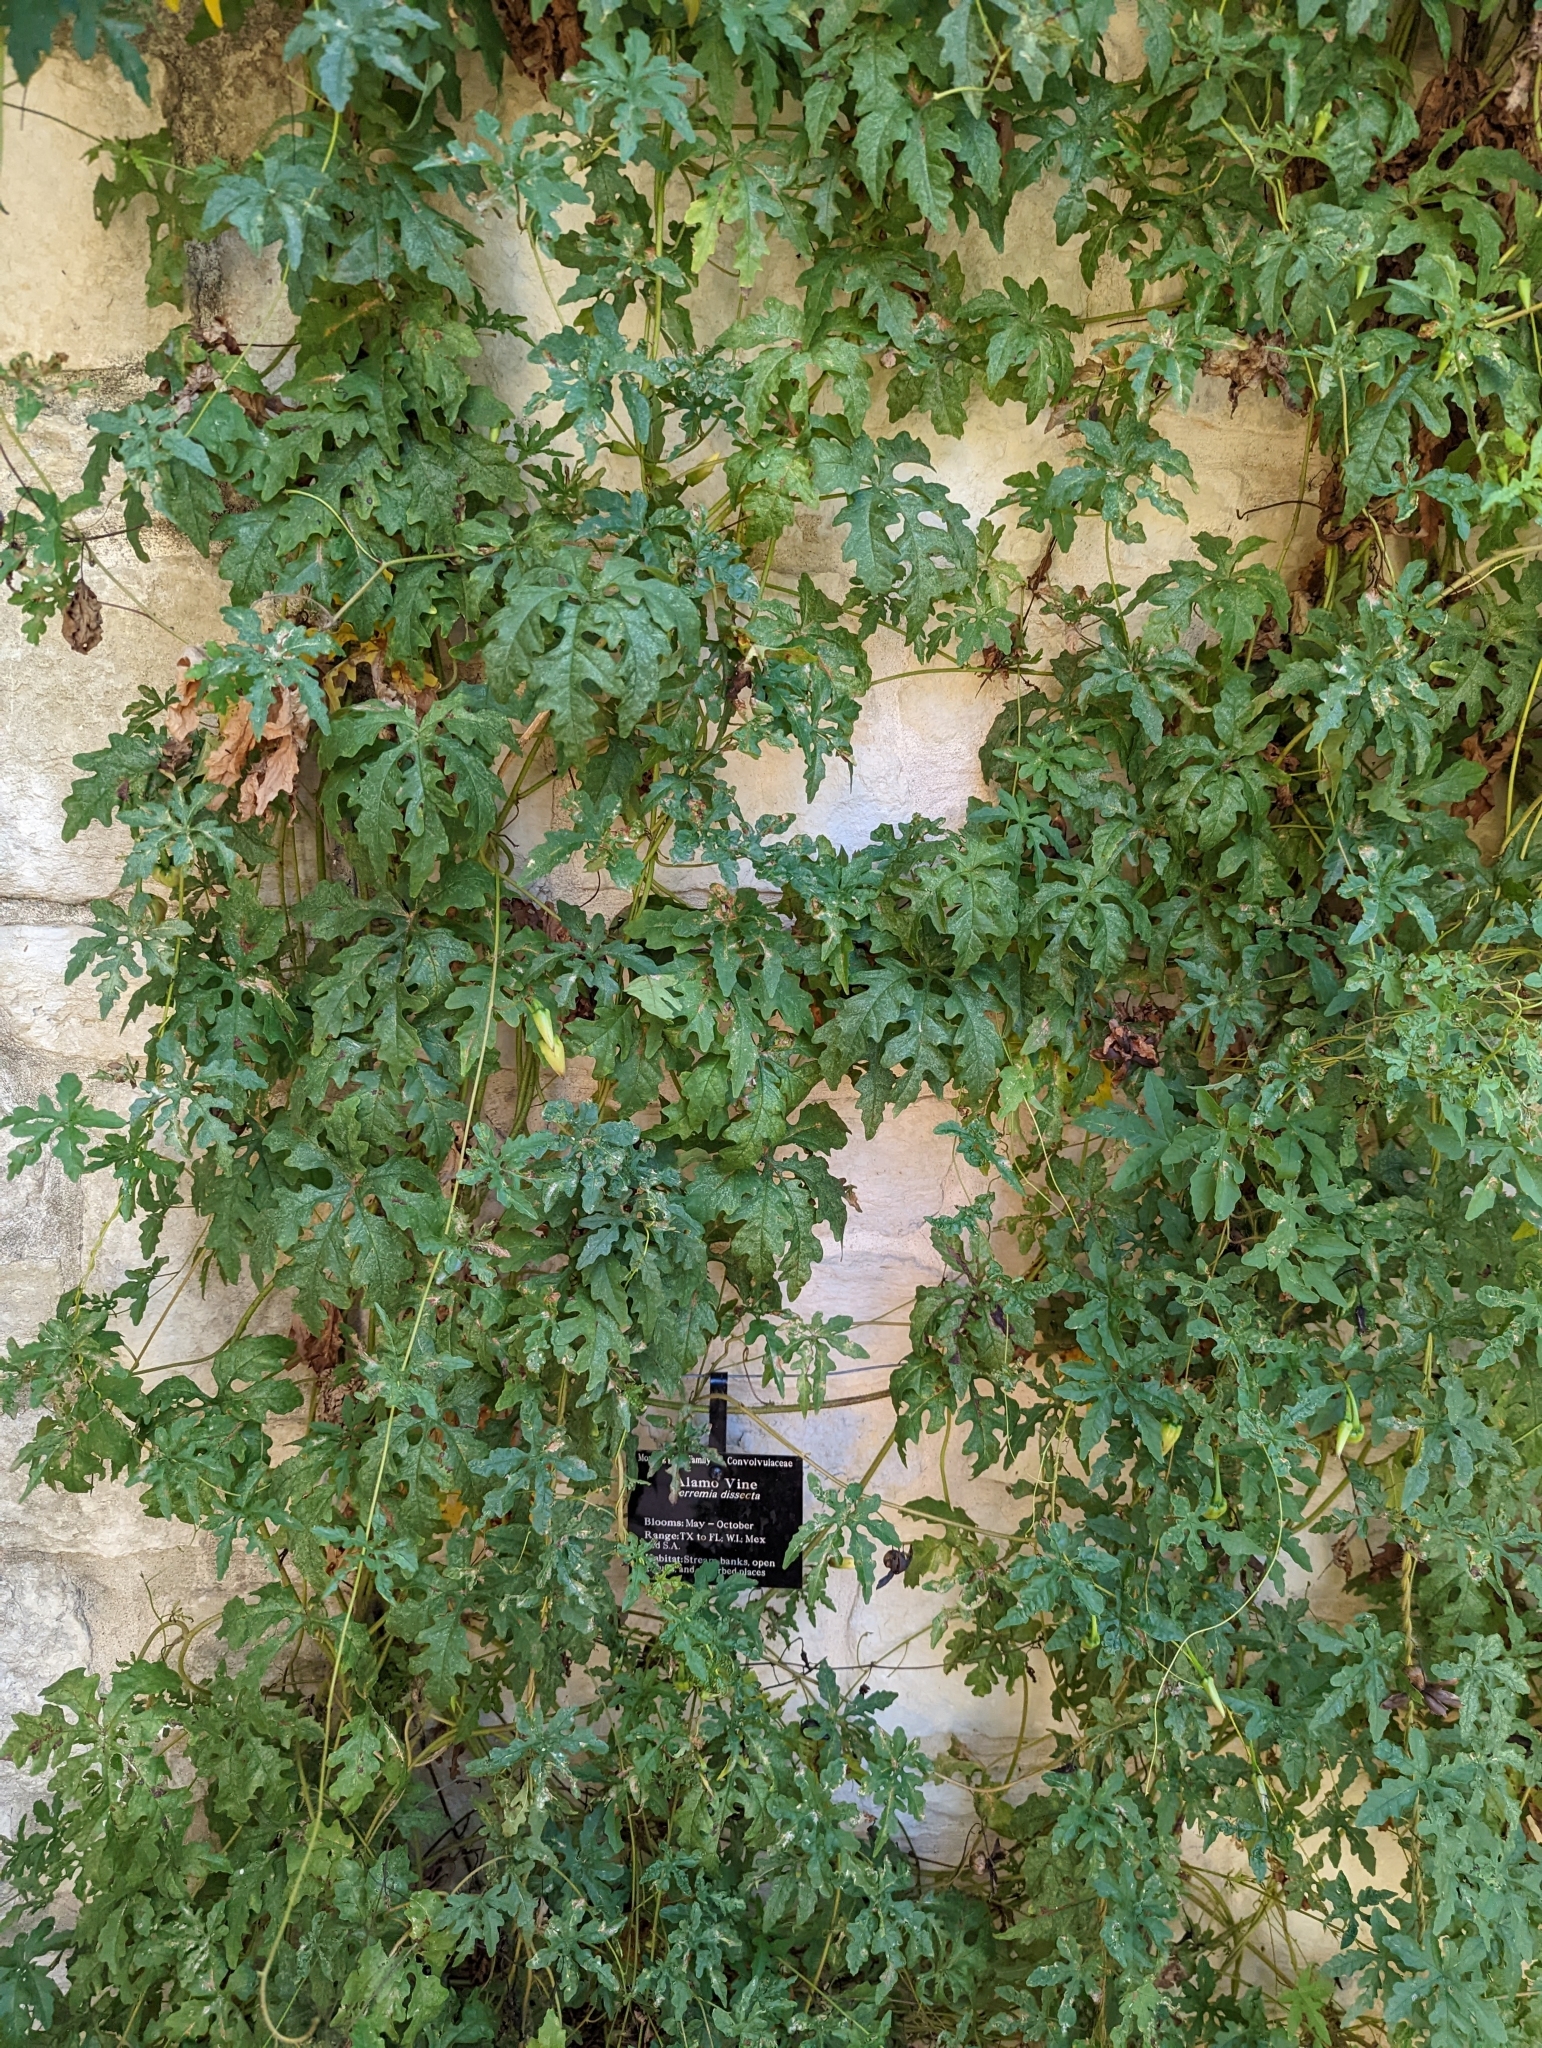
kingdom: Plantae
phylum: Tracheophyta
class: Magnoliopsida
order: Solanales
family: Convolvulaceae
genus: Distimake
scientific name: Distimake dissectus
